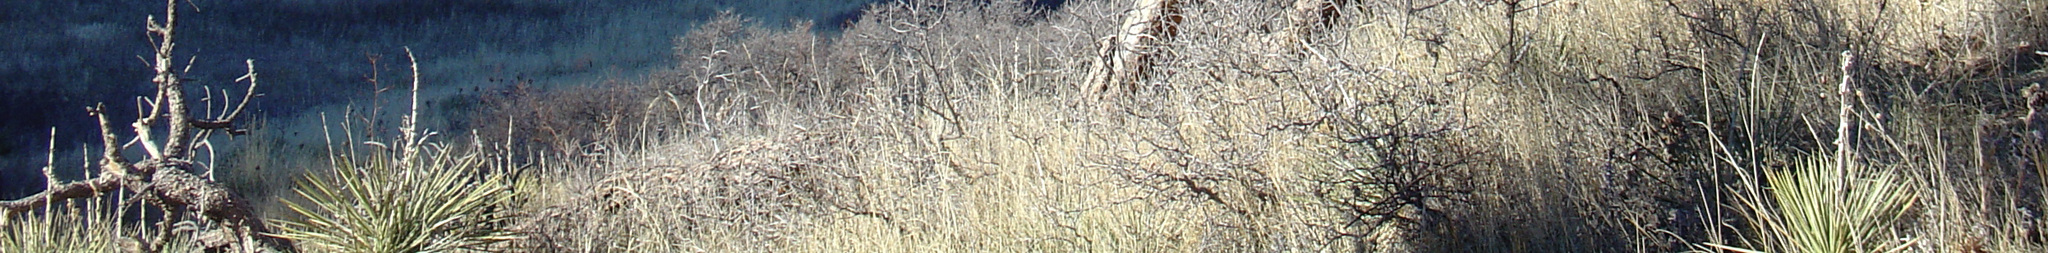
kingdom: Plantae
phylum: Tracheophyta
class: Liliopsida
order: Asparagales
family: Asparagaceae
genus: Yucca
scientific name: Yucca glauca
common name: Great plains yucca
